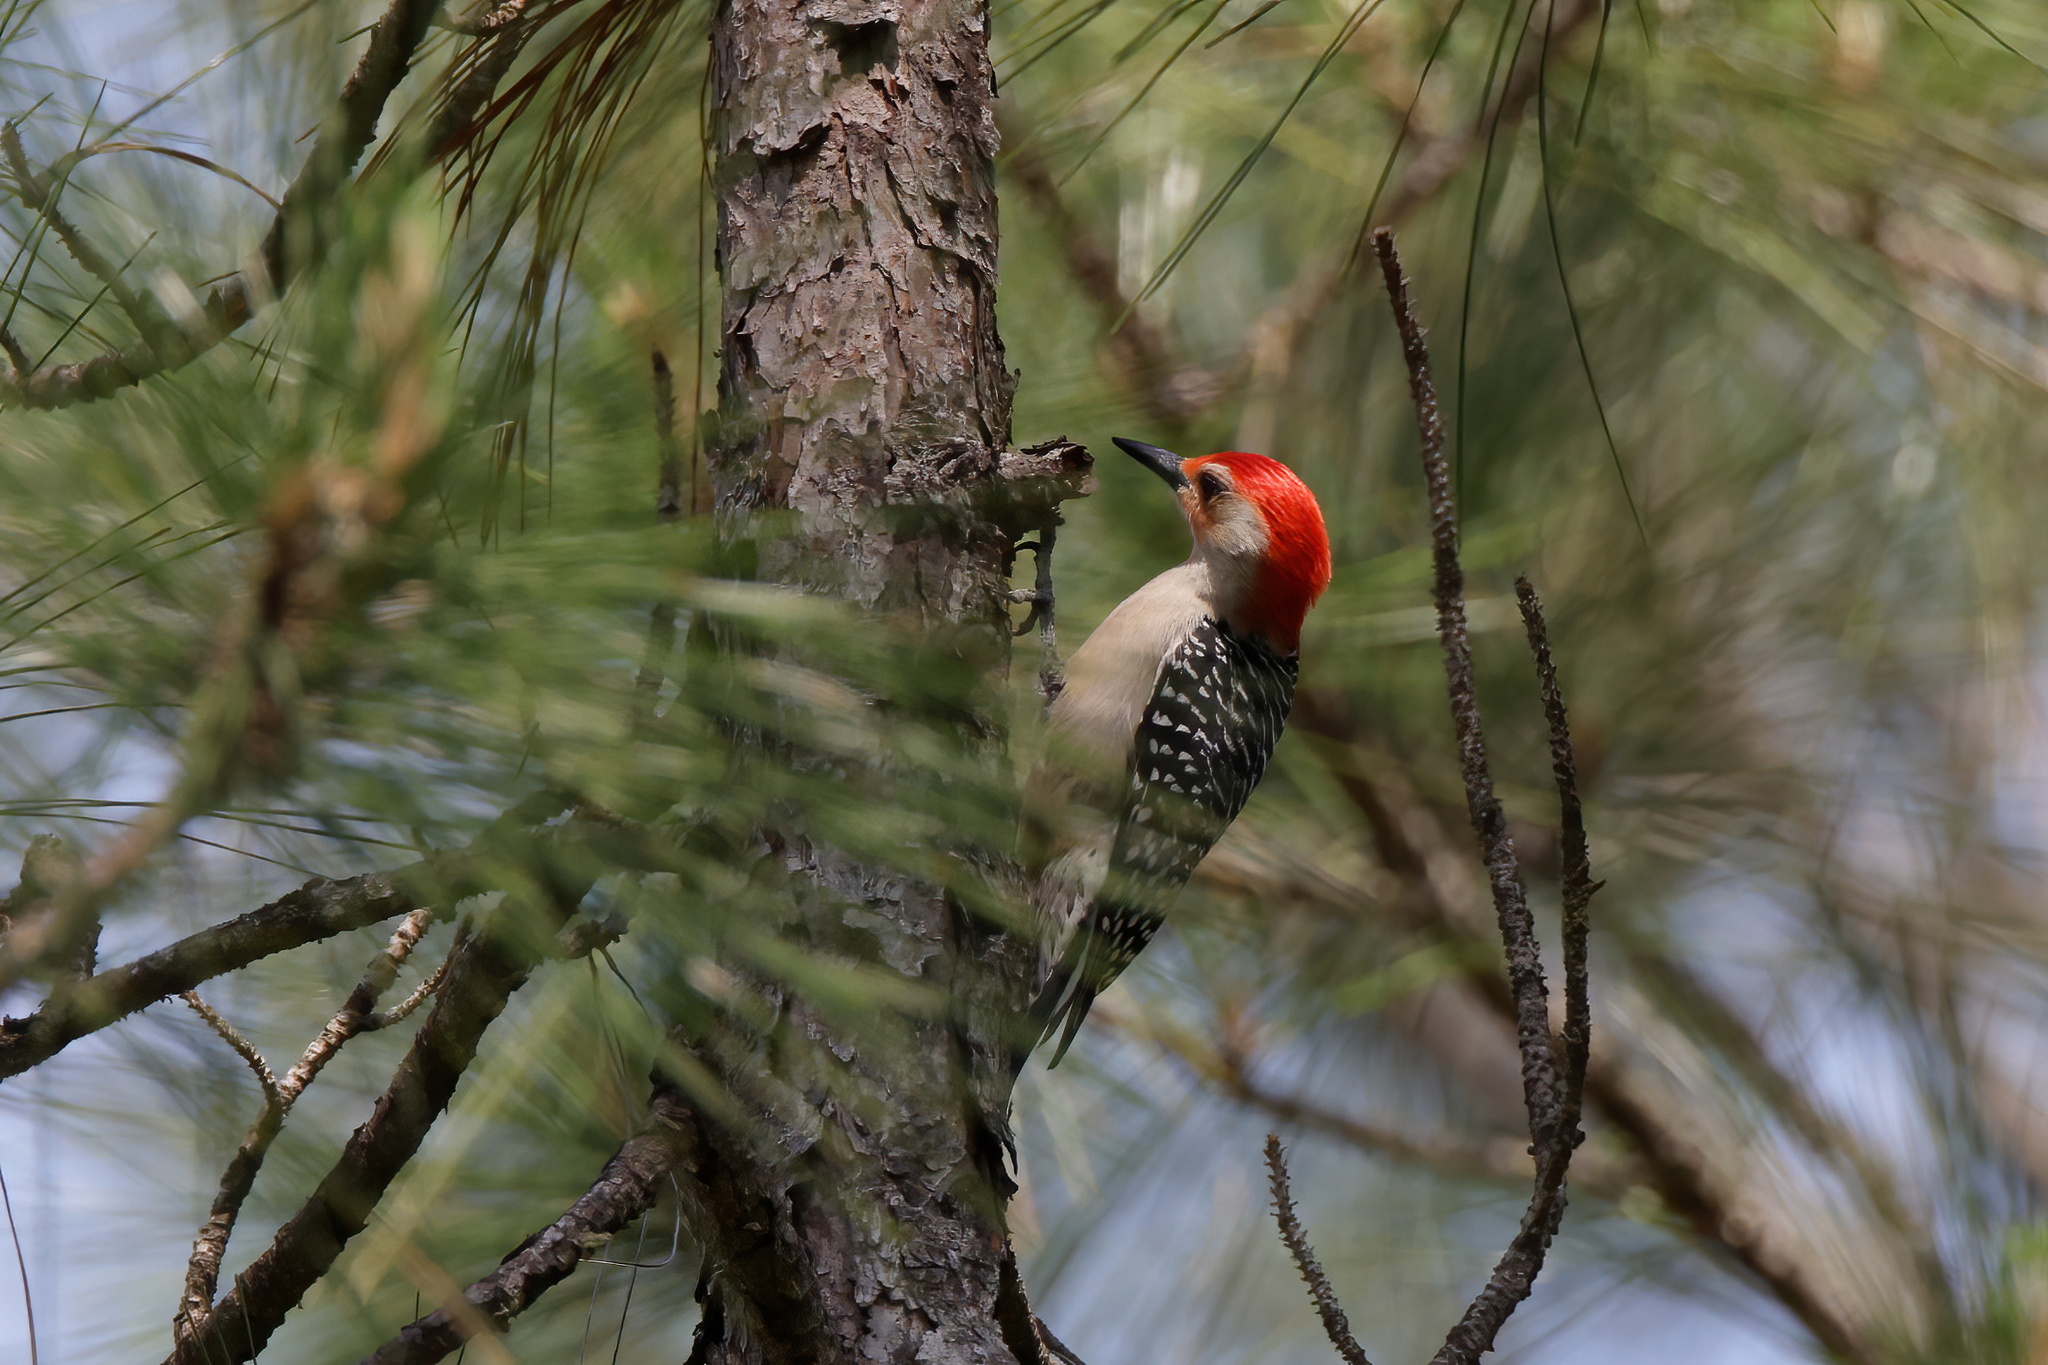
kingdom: Animalia
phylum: Chordata
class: Aves
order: Piciformes
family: Picidae
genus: Melanerpes
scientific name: Melanerpes carolinus
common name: Red-bellied woodpecker
